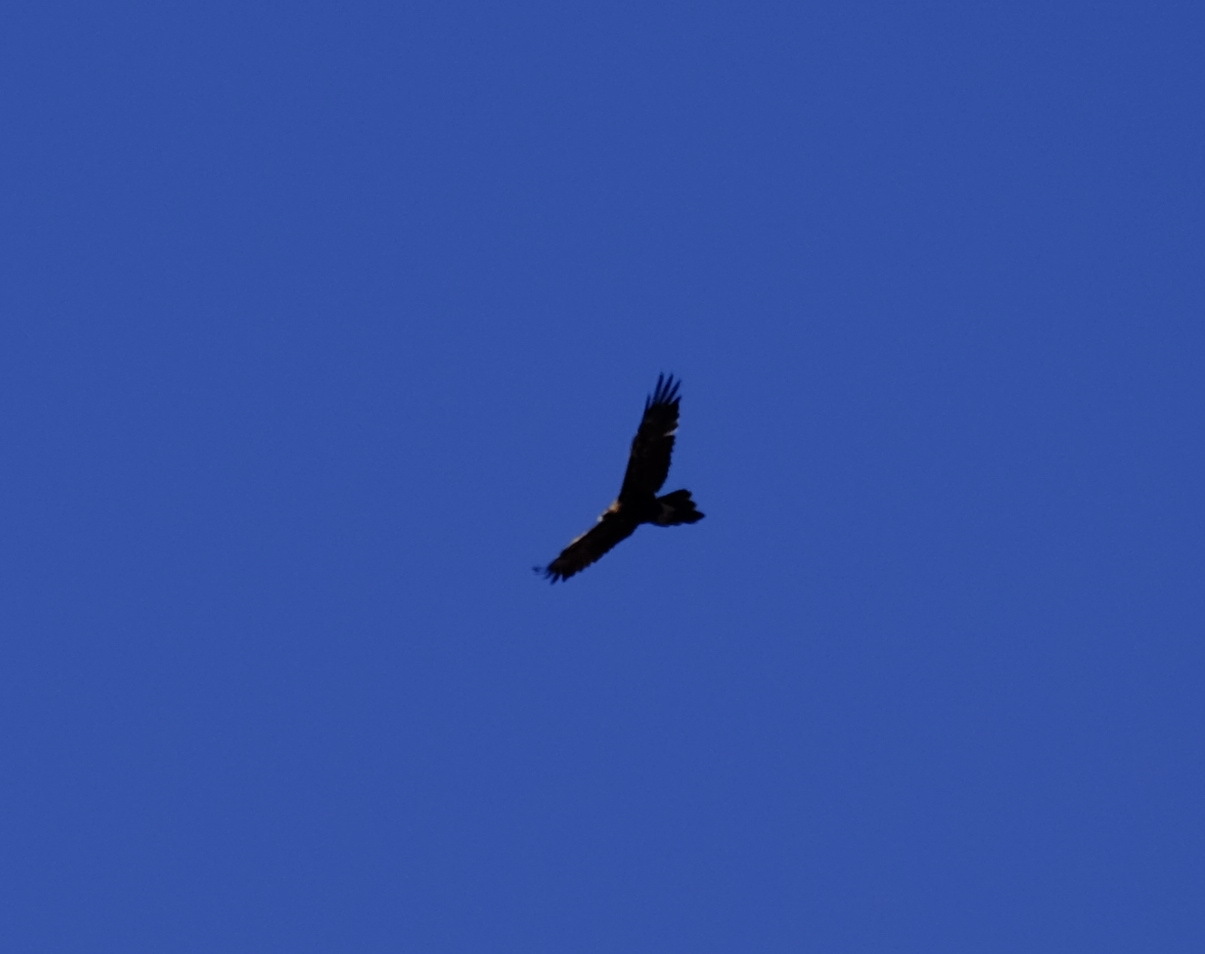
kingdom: Animalia
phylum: Chordata
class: Aves
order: Accipitriformes
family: Accipitridae
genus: Aquila
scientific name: Aquila audax
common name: Wedge-tailed eagle
